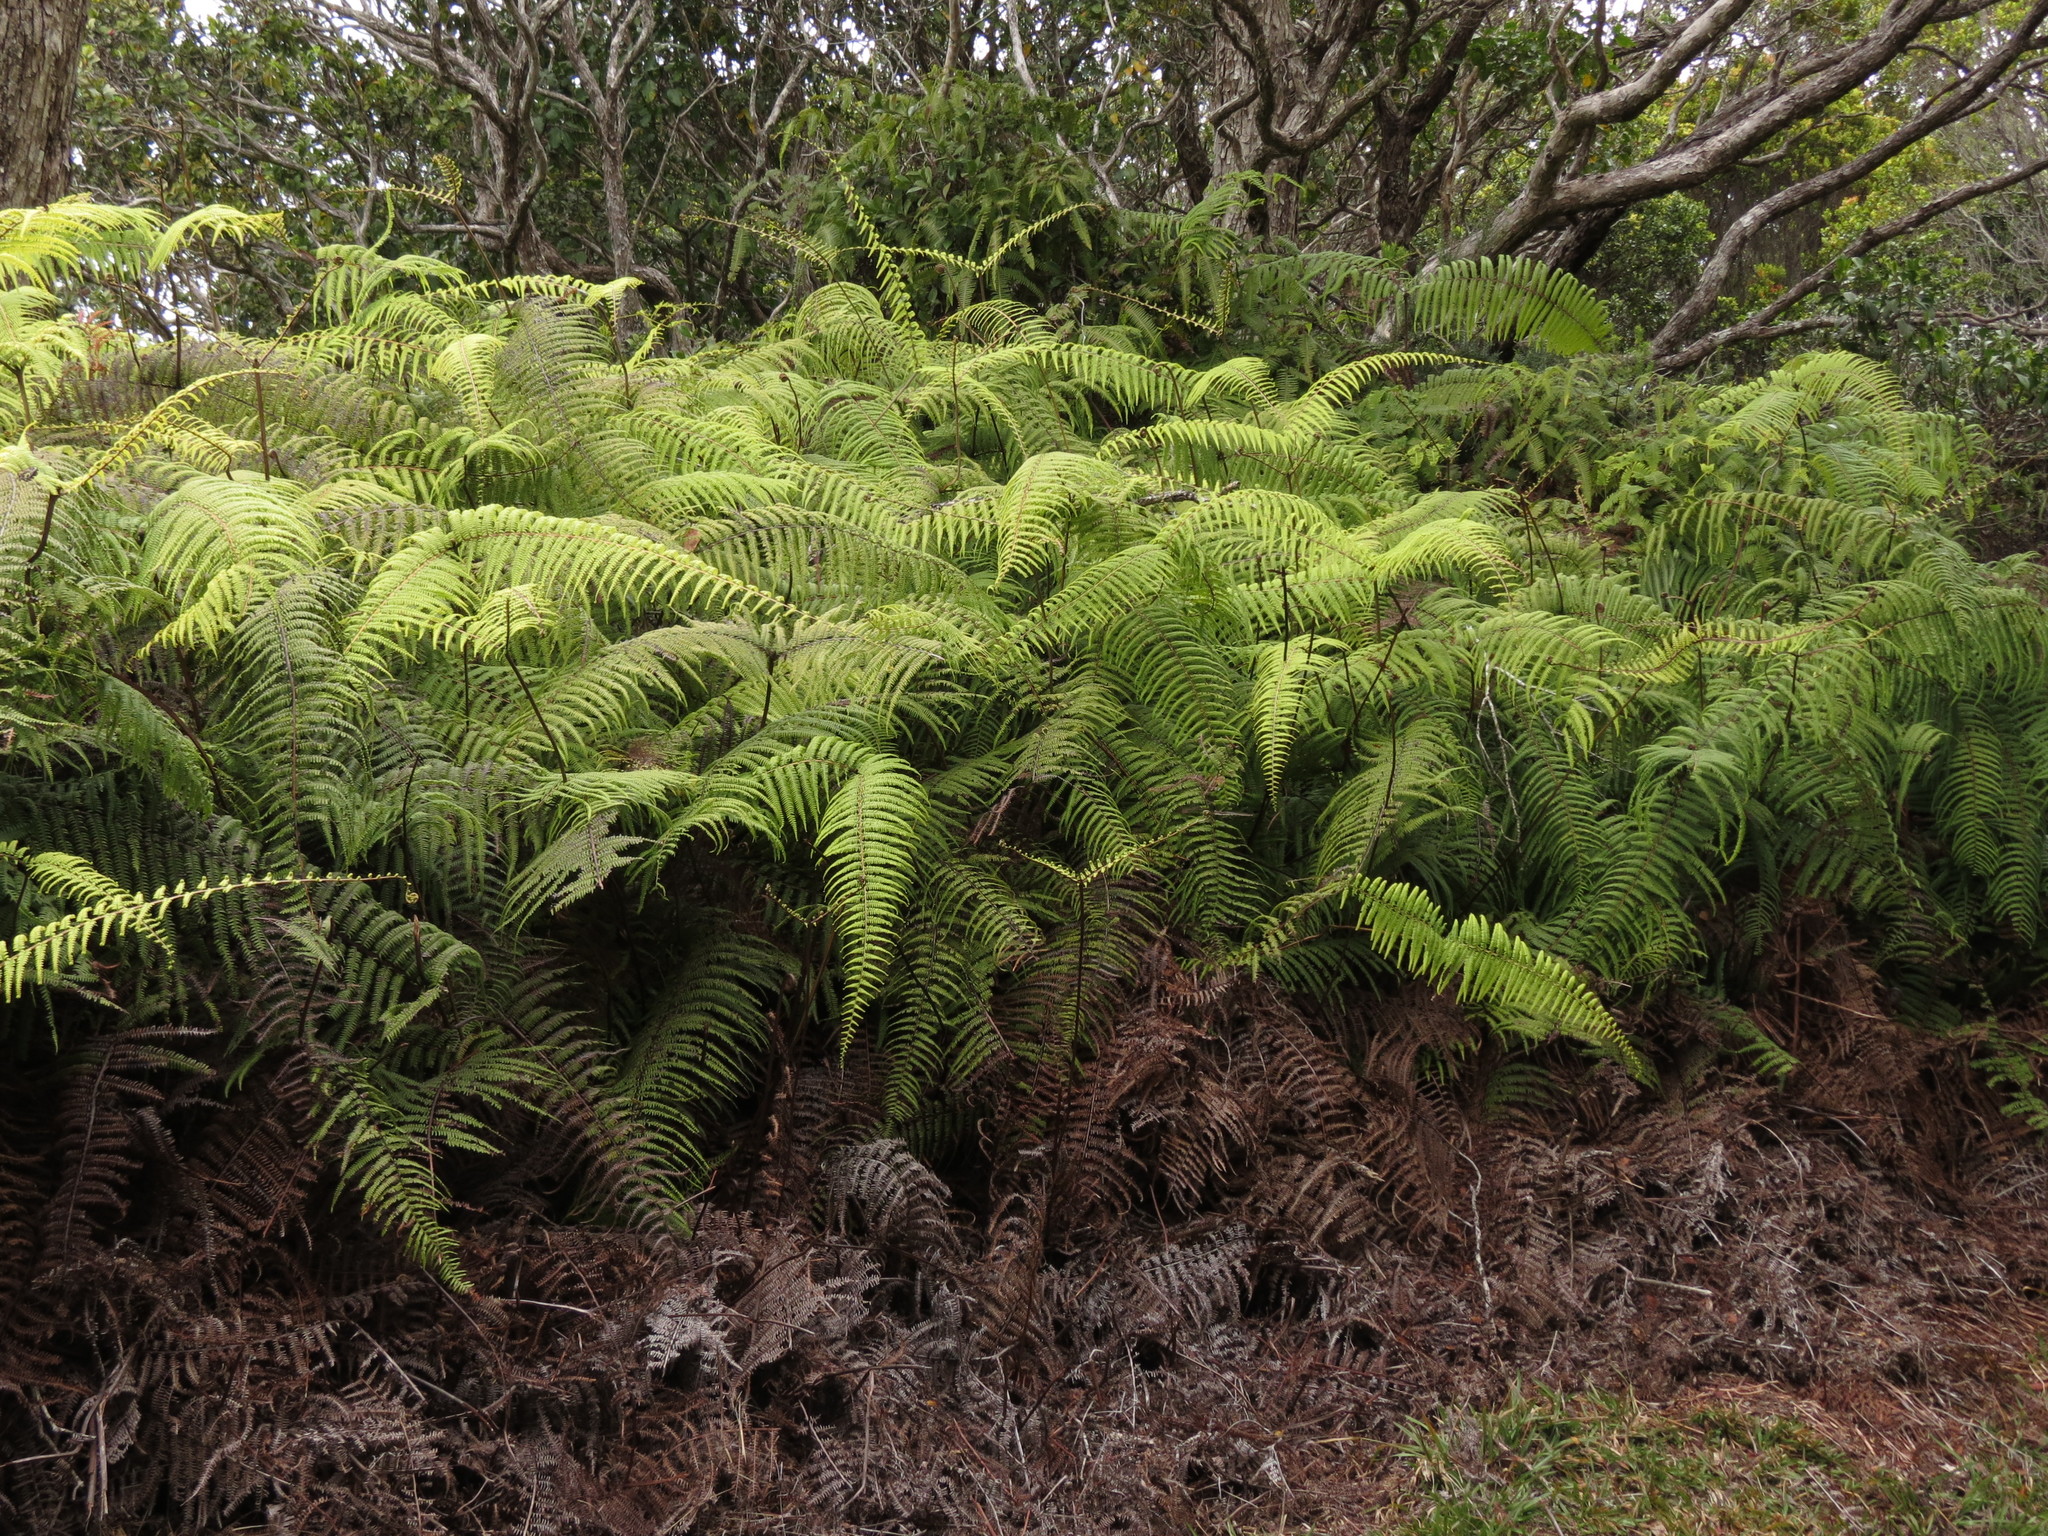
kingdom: Plantae
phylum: Tracheophyta
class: Polypodiopsida
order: Gleicheniales
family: Gleicheniaceae
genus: Diplopterygium
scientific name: Diplopterygium pinnatum
